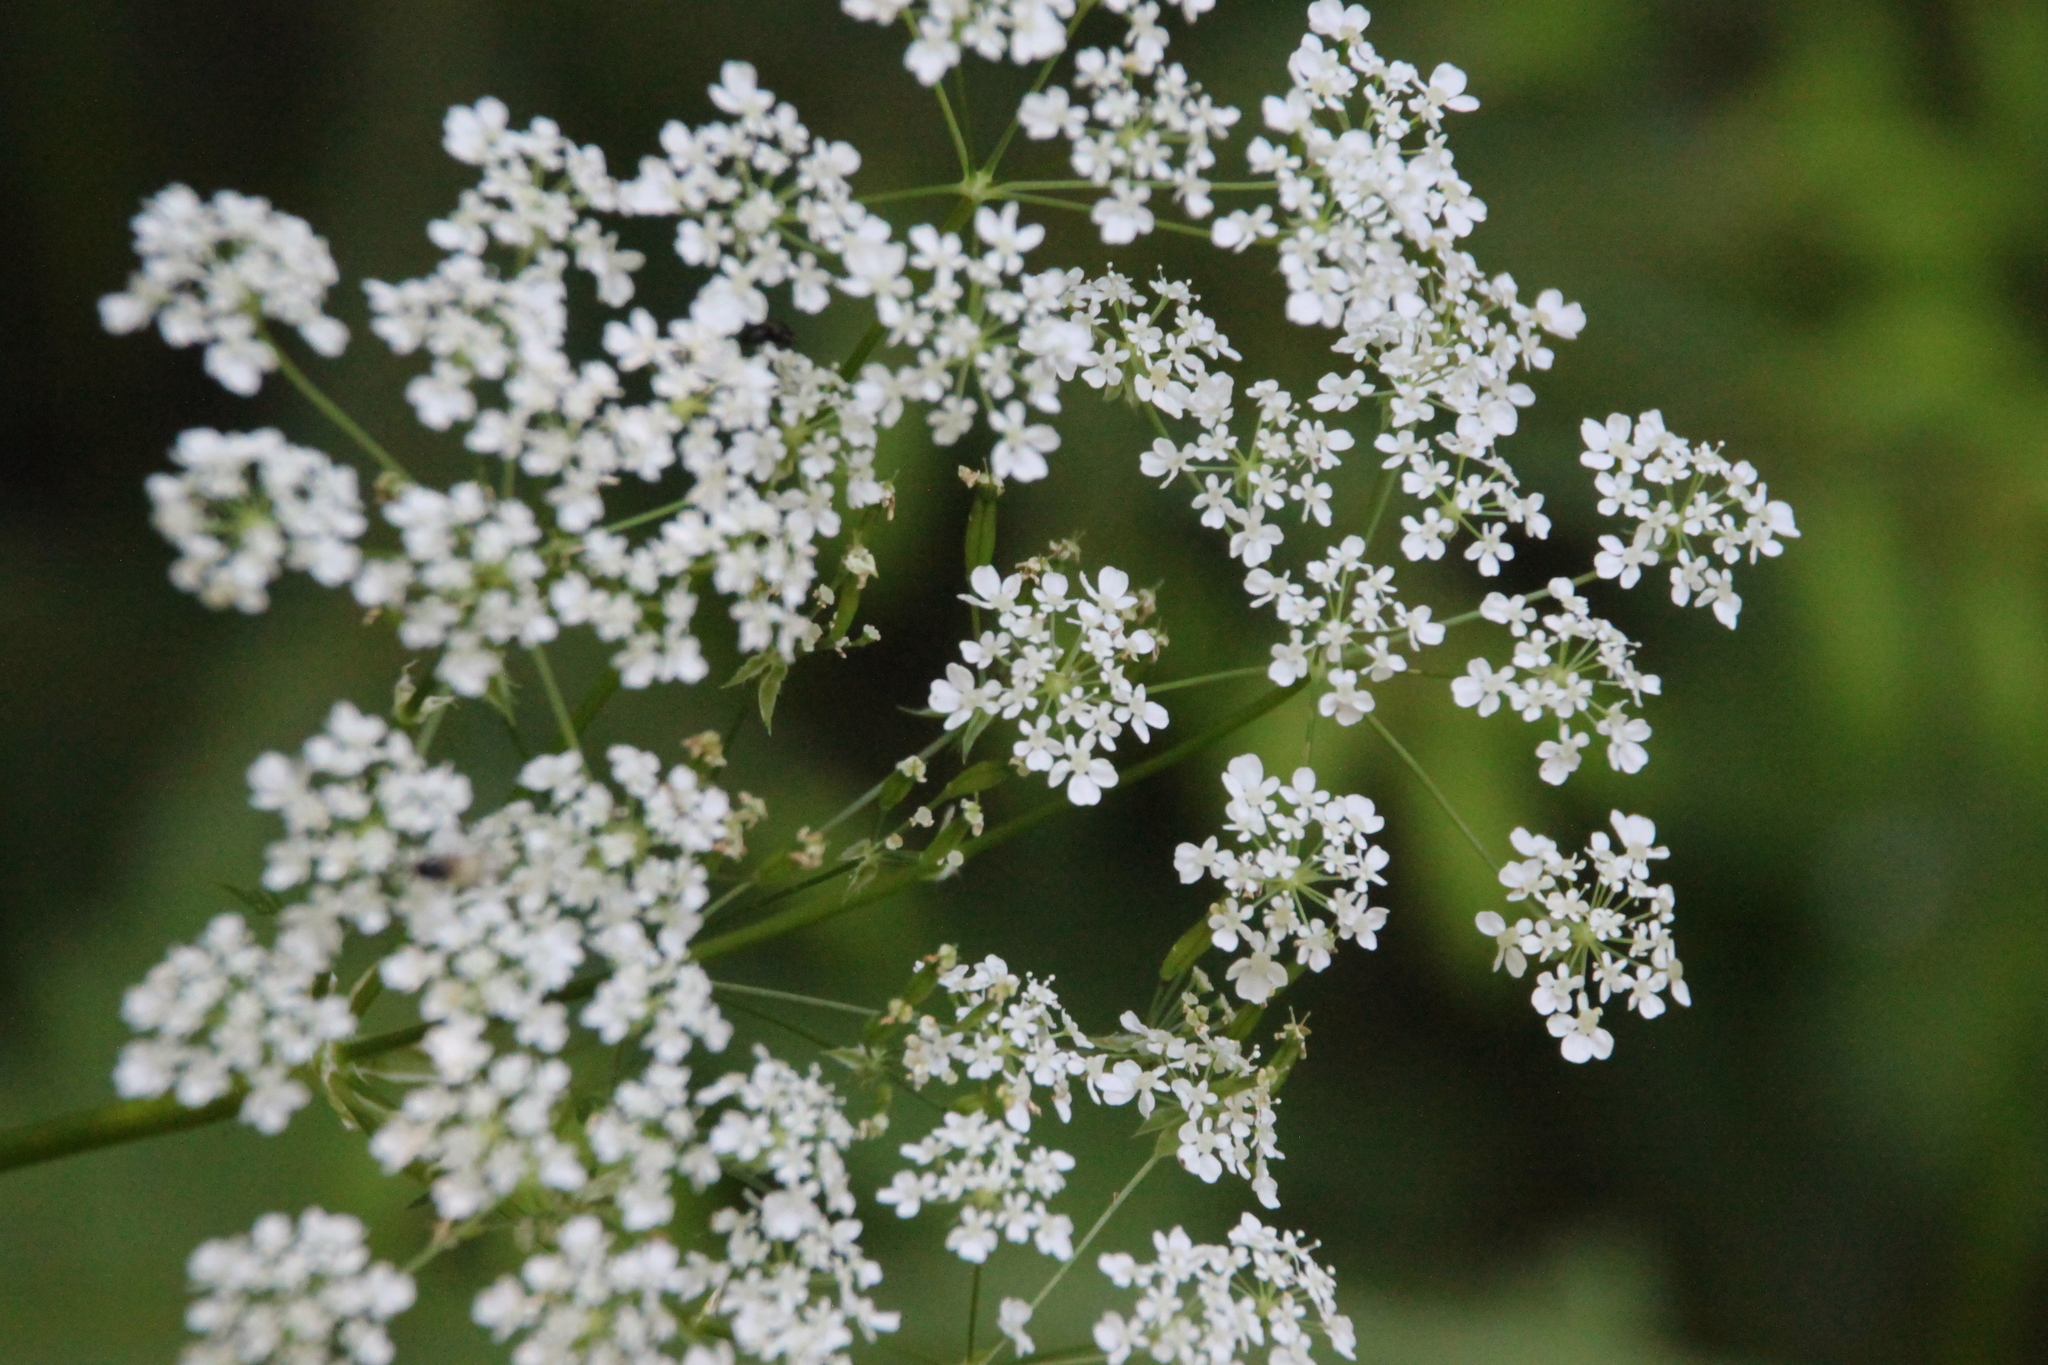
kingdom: Plantae
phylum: Tracheophyta
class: Magnoliopsida
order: Apiales
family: Apiaceae
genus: Anthriscus
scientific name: Anthriscus sylvestris
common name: Cow parsley
